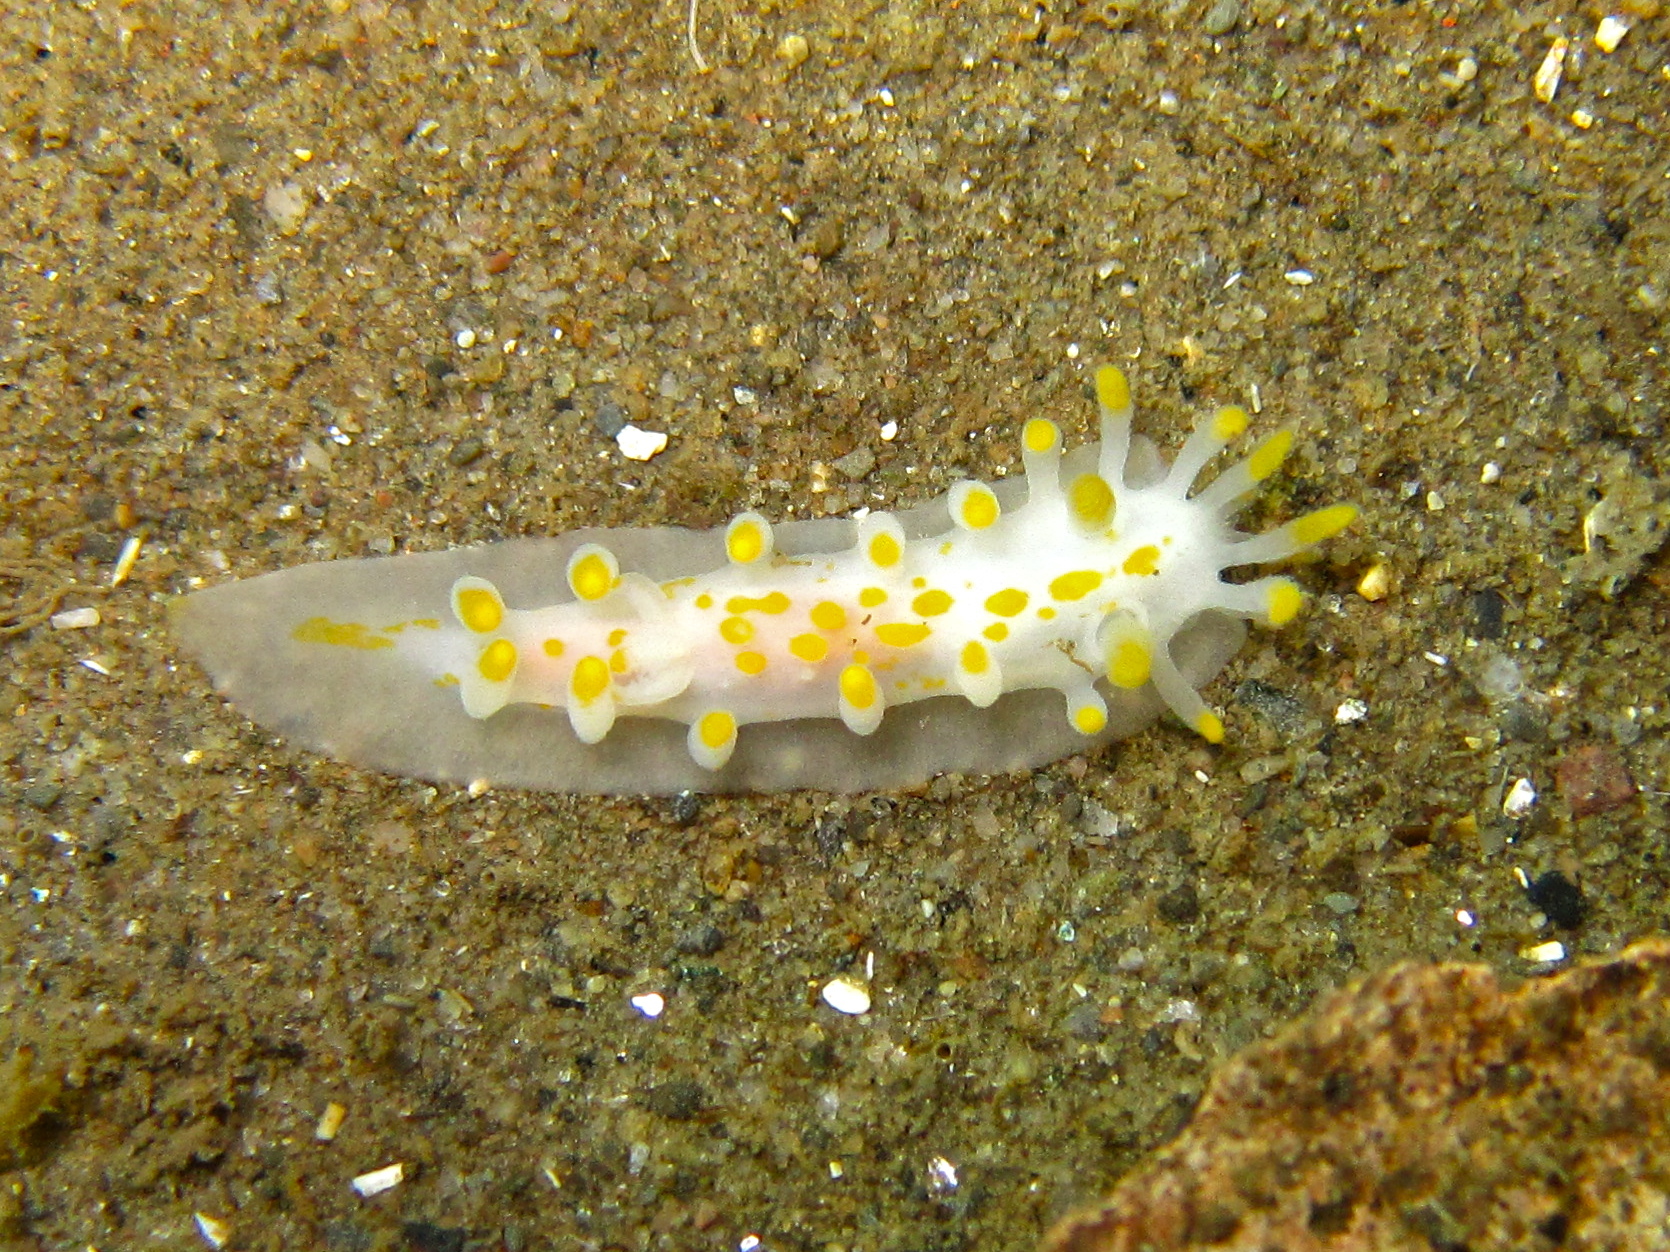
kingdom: Animalia
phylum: Mollusca
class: Gastropoda
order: Nudibranchia
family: Polyceridae
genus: Limacia
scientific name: Limacia clavigera
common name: Orange-clubbed sea slug
